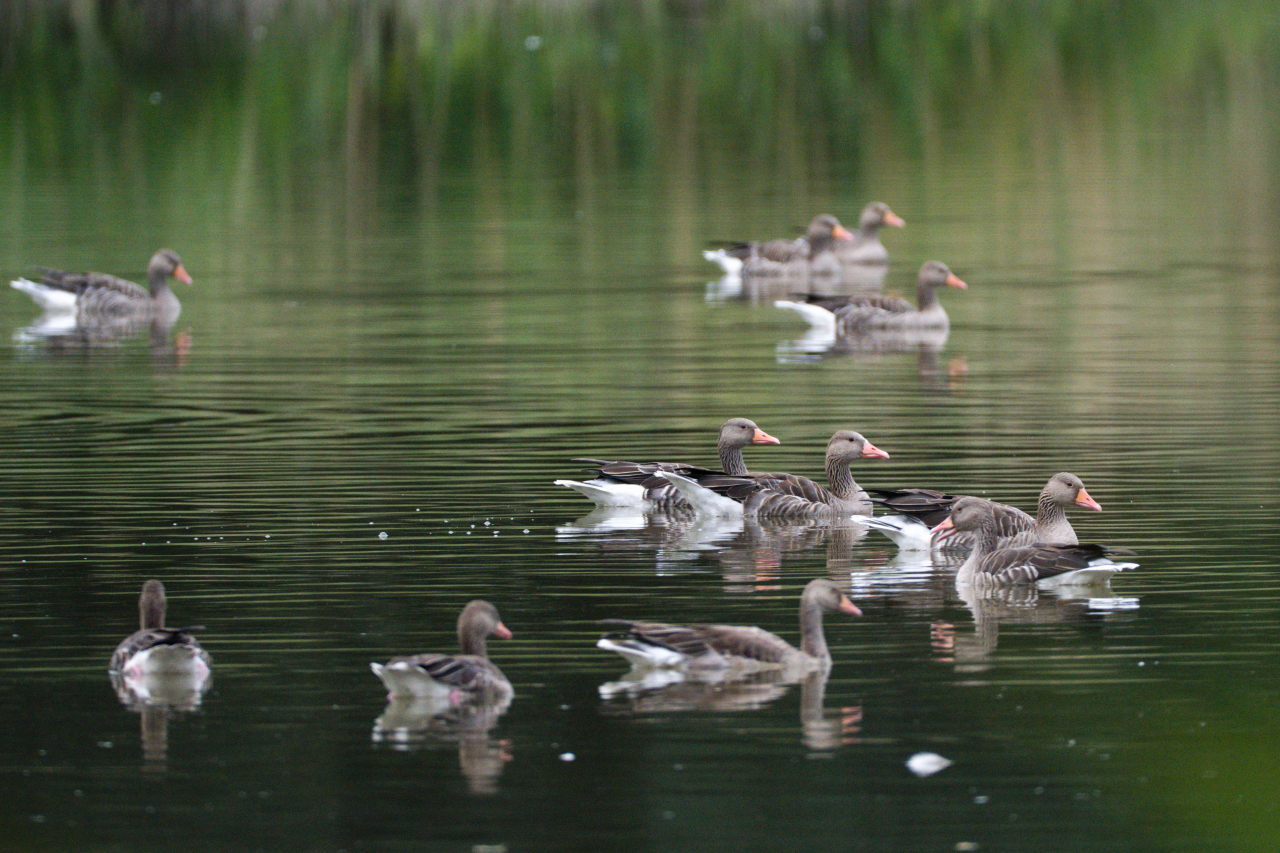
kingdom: Animalia
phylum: Chordata
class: Aves
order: Anseriformes
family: Anatidae
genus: Anser
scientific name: Anser anser
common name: Greylag goose
